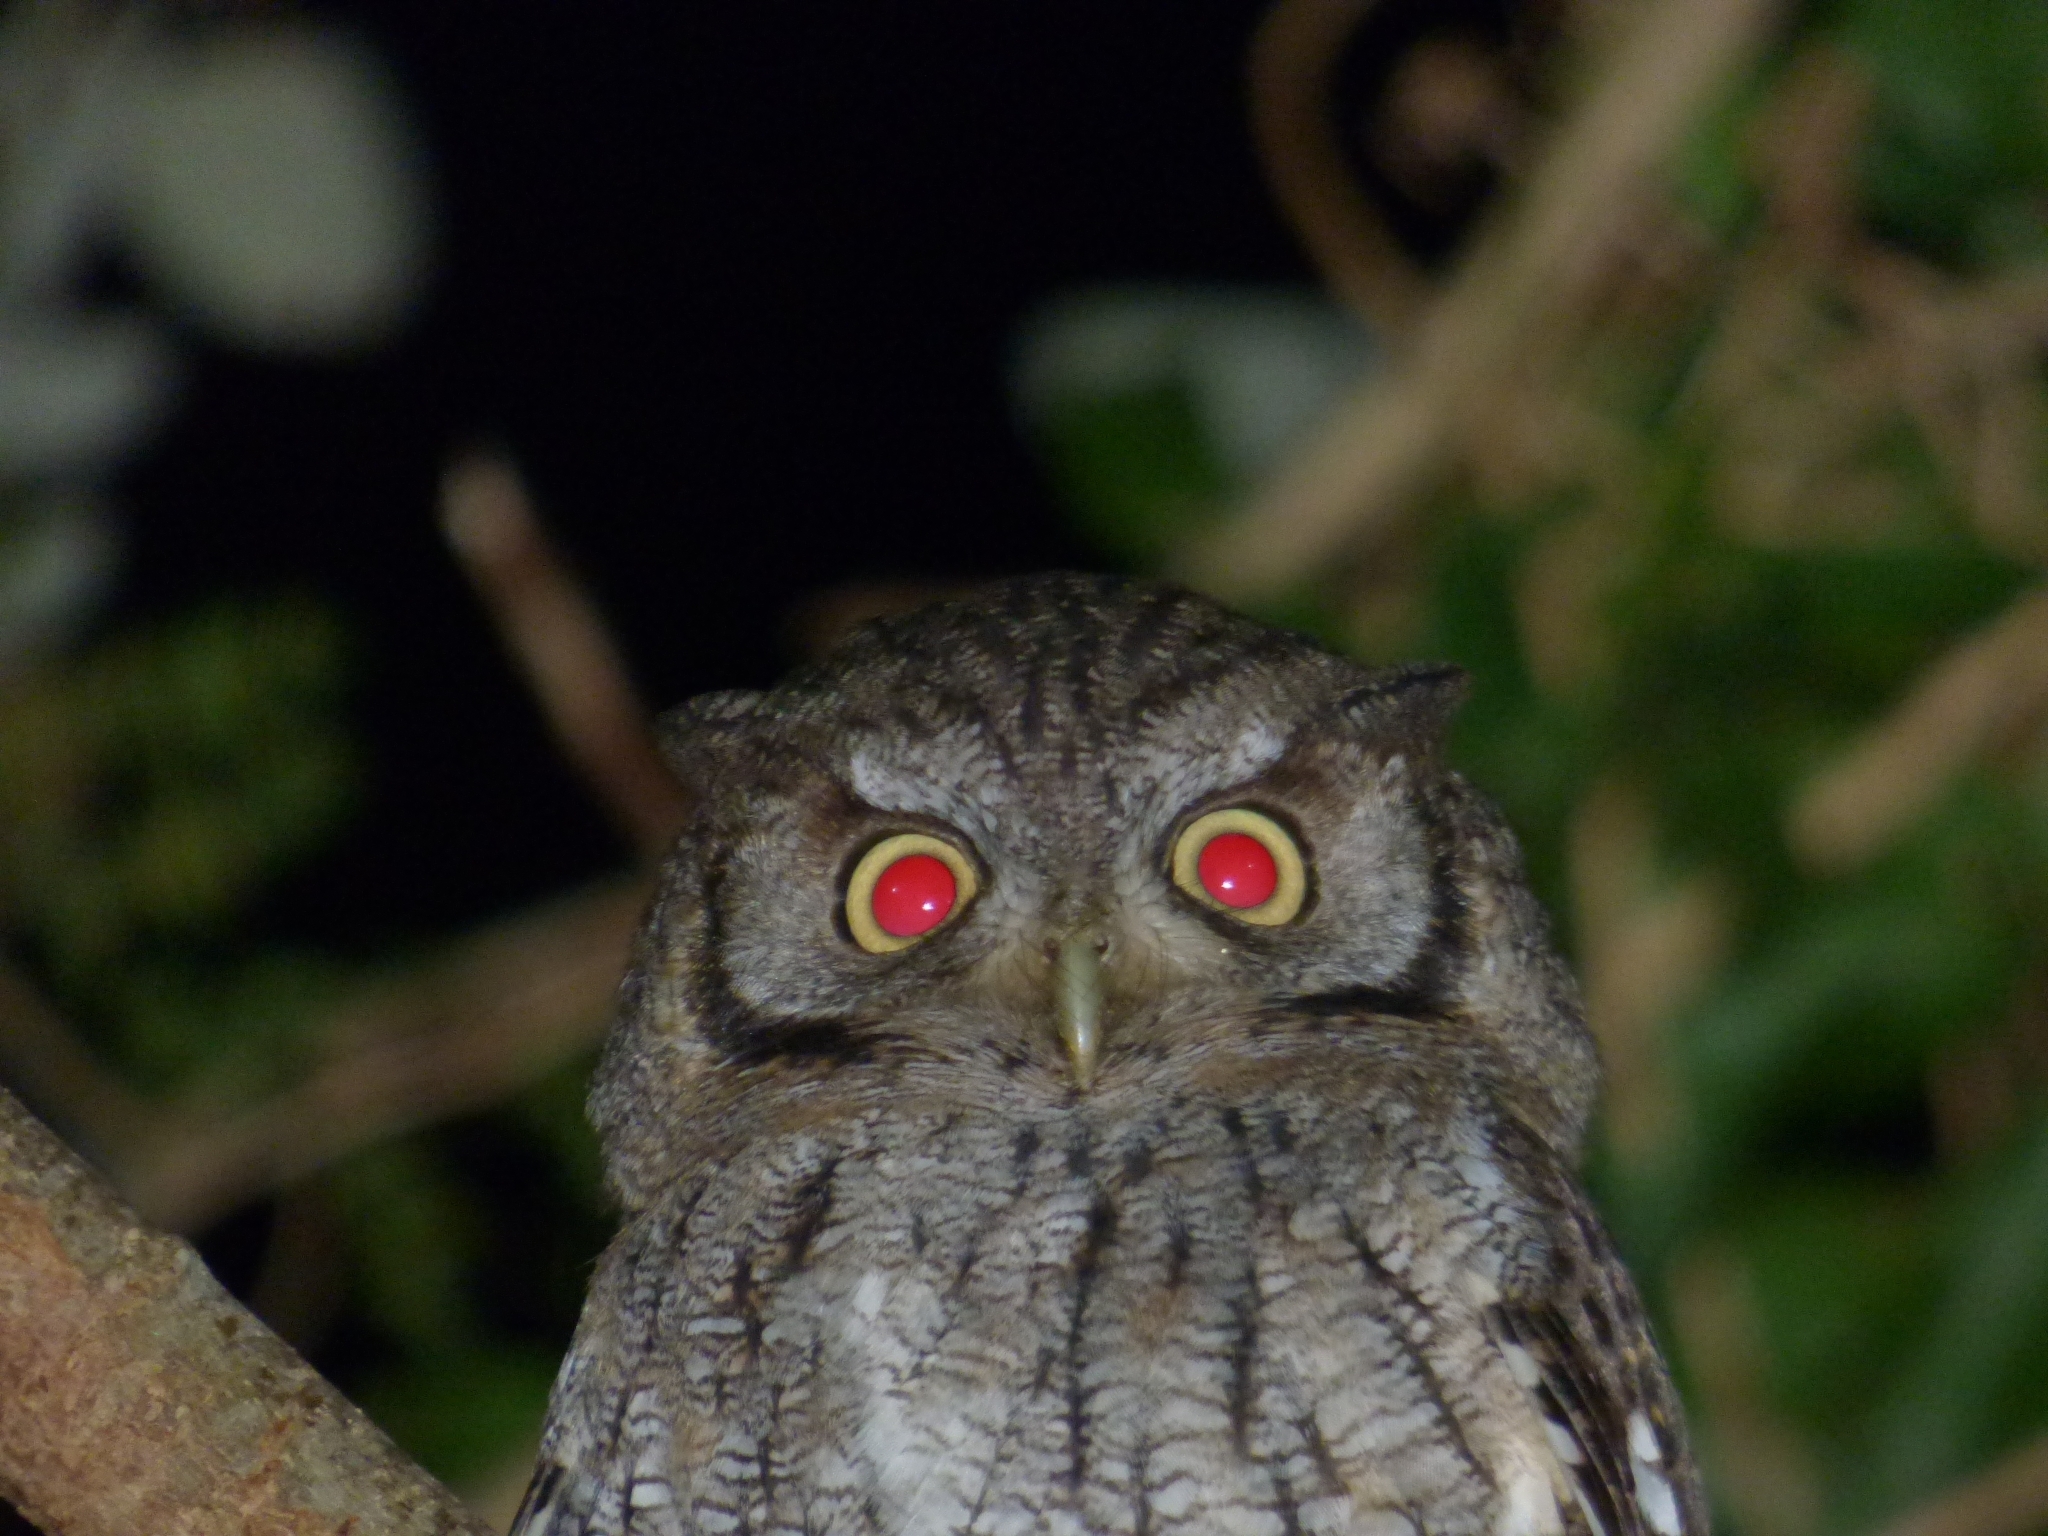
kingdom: Animalia
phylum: Chordata
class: Aves
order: Strigiformes
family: Strigidae
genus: Megascops
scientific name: Megascops choliba
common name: Tropical screech-owl
